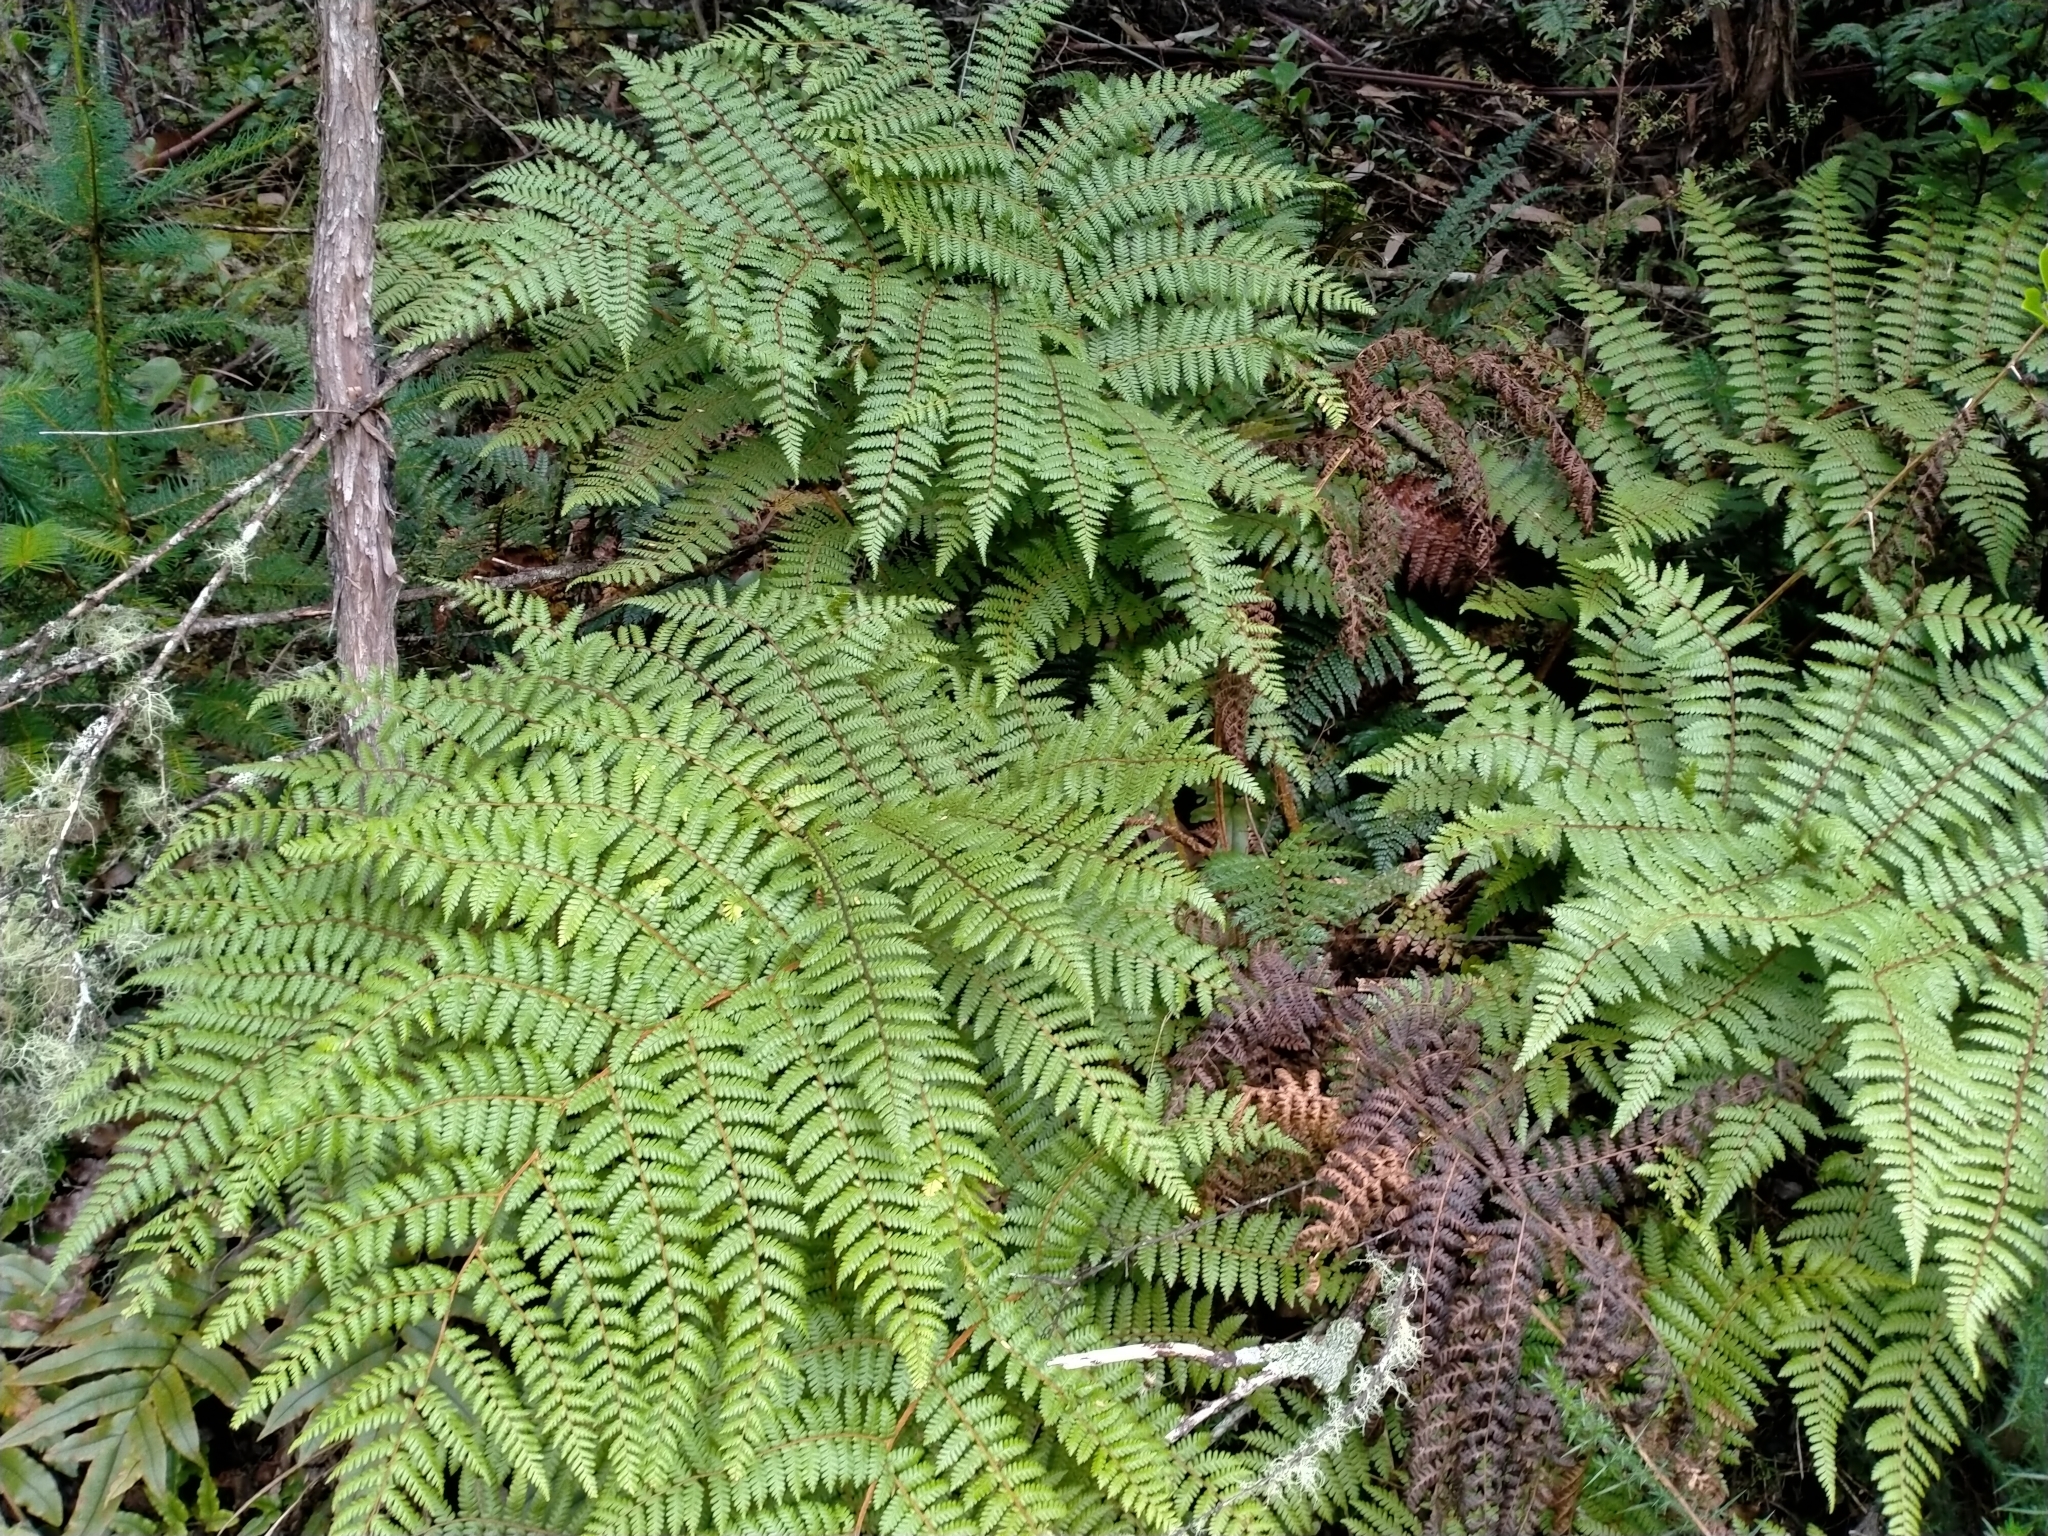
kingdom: Plantae
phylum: Tracheophyta
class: Polypodiopsida
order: Cyatheales
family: Cyatheaceae
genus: Alsophila
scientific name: Alsophila colensoi
